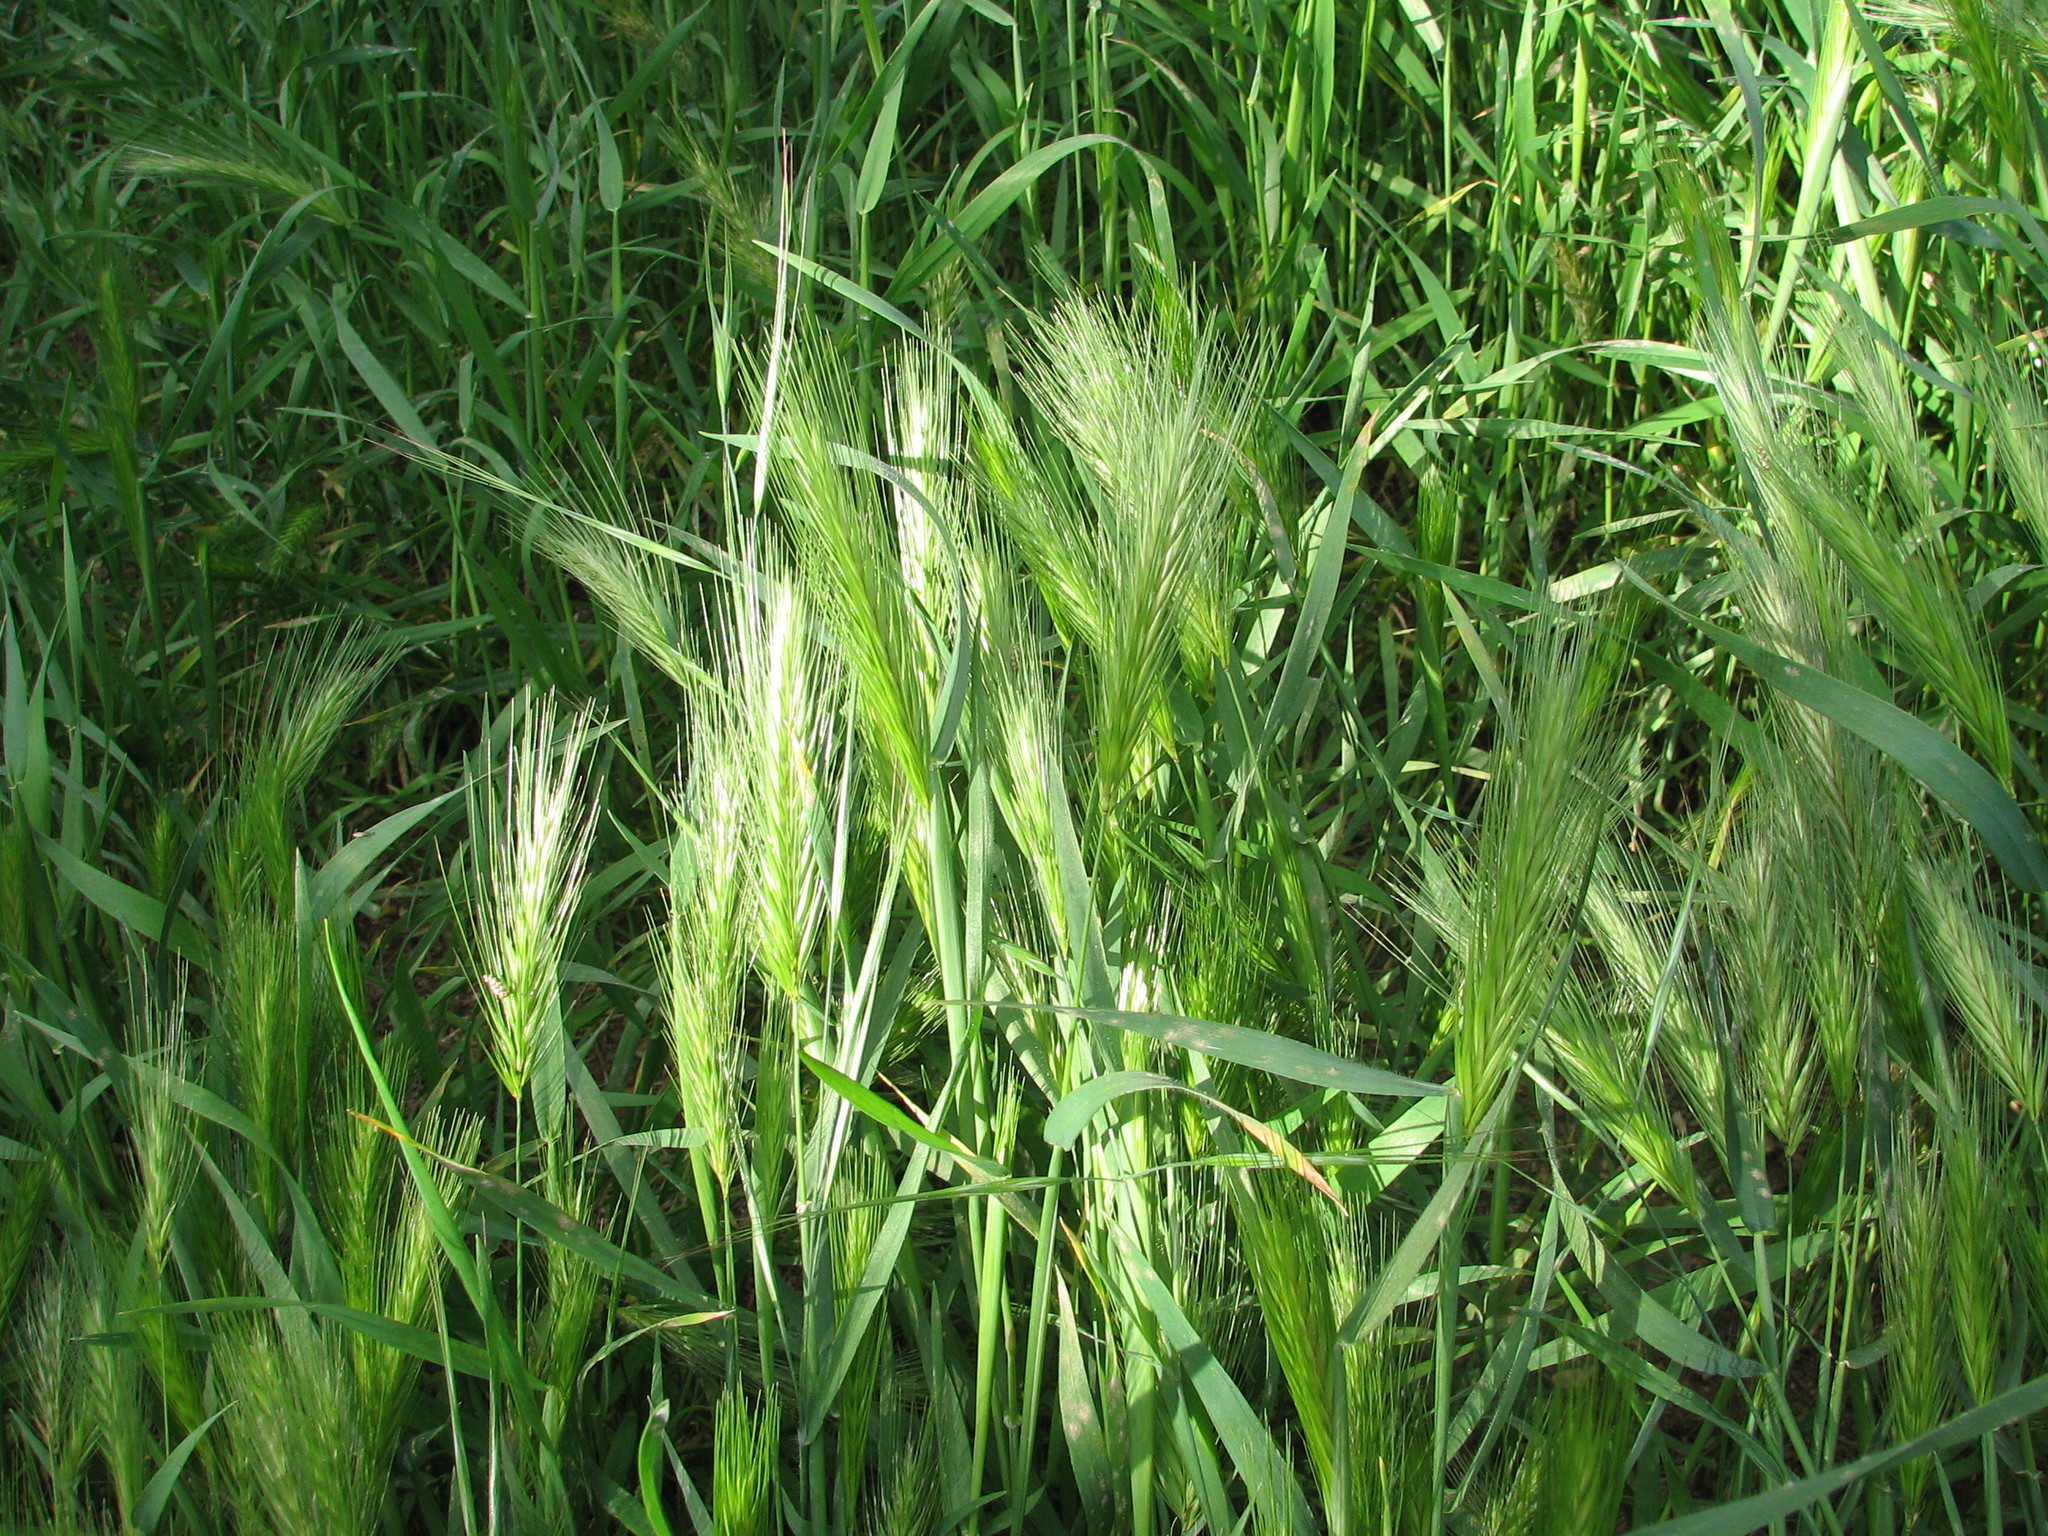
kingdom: Plantae
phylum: Tracheophyta
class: Liliopsida
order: Poales
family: Poaceae
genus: Hordeum
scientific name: Hordeum jubatum
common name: Foxtail barley
